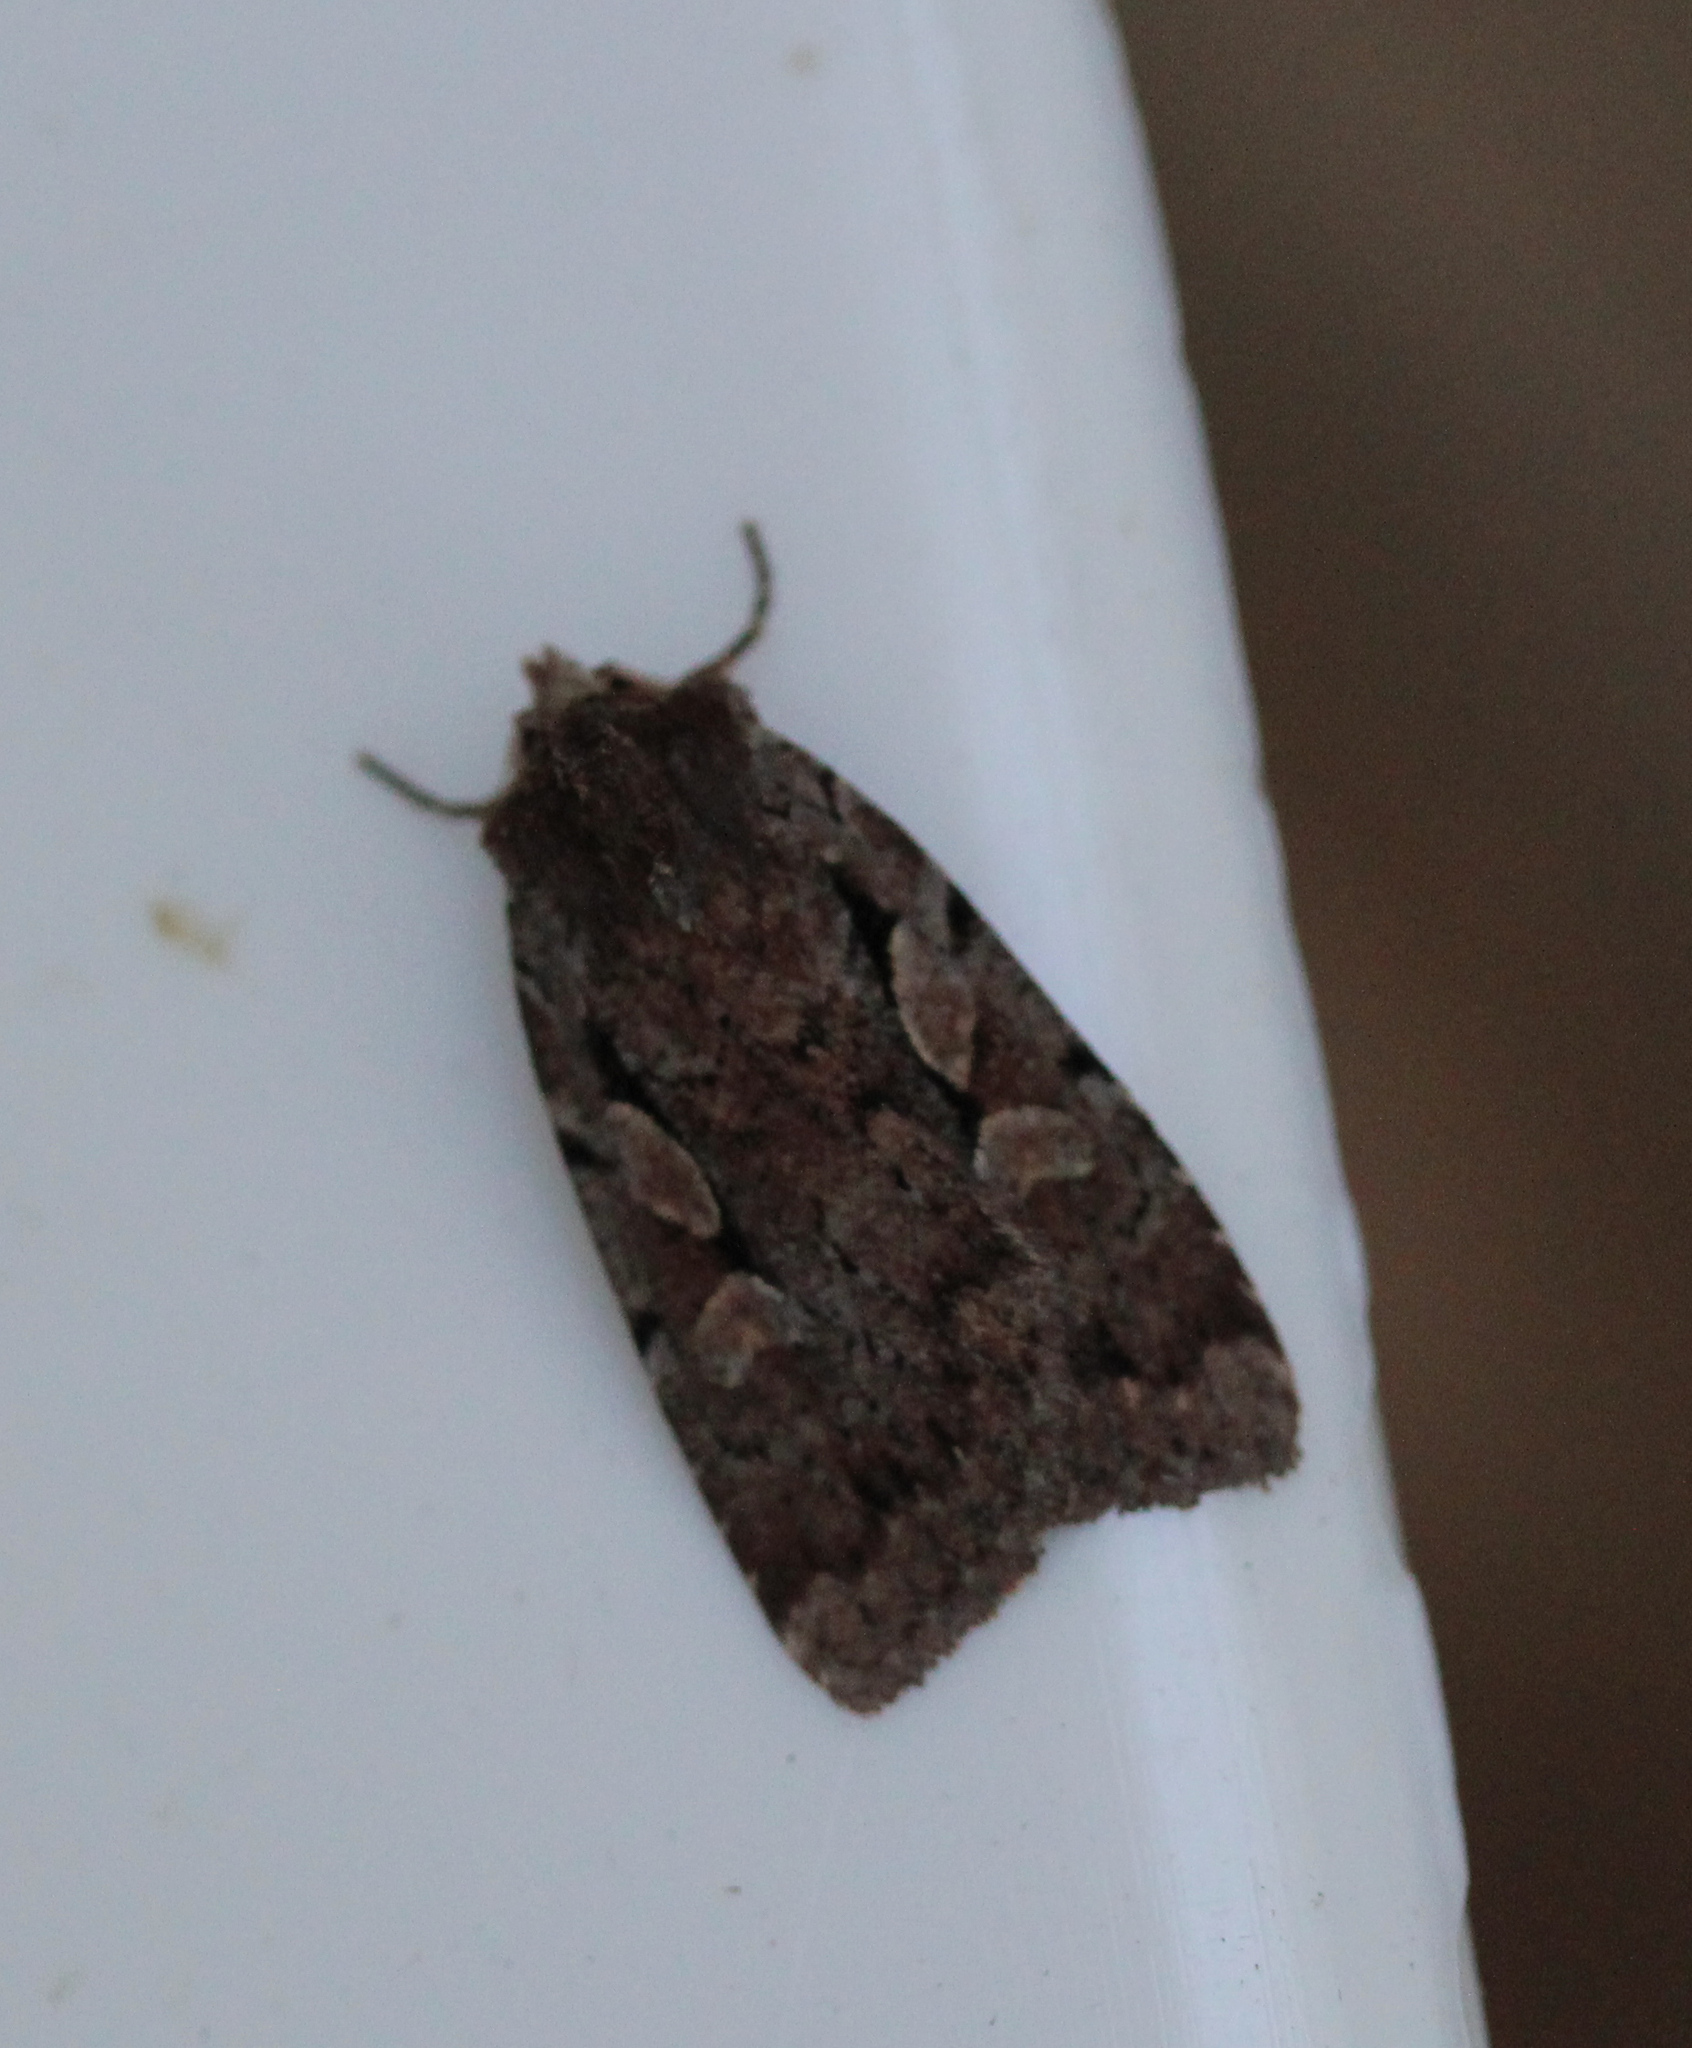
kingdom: Animalia
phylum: Arthropoda
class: Insecta
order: Lepidoptera
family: Noctuidae
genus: Xestia
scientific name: Xestia badicollis
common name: Northern variable dart
